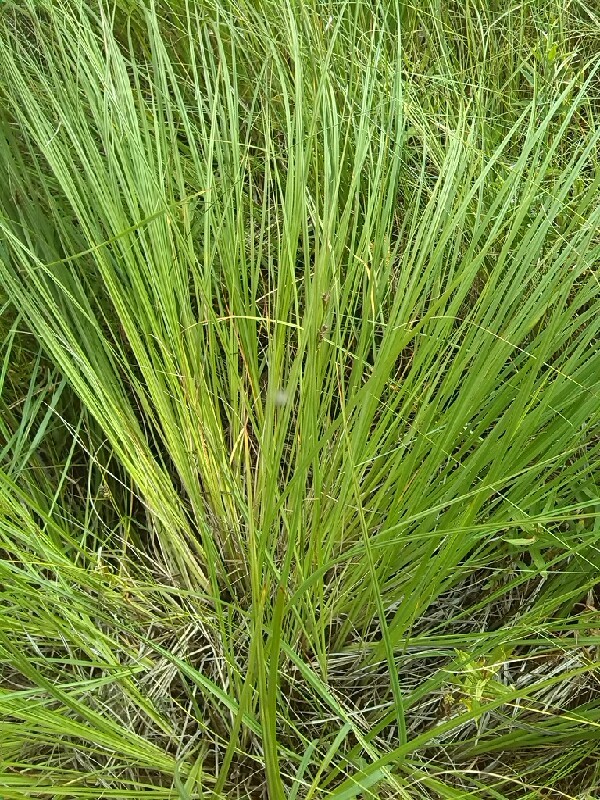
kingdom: Plantae
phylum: Tracheophyta
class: Liliopsida
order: Poales
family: Cyperaceae
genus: Carex
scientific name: Carex cespitosa
